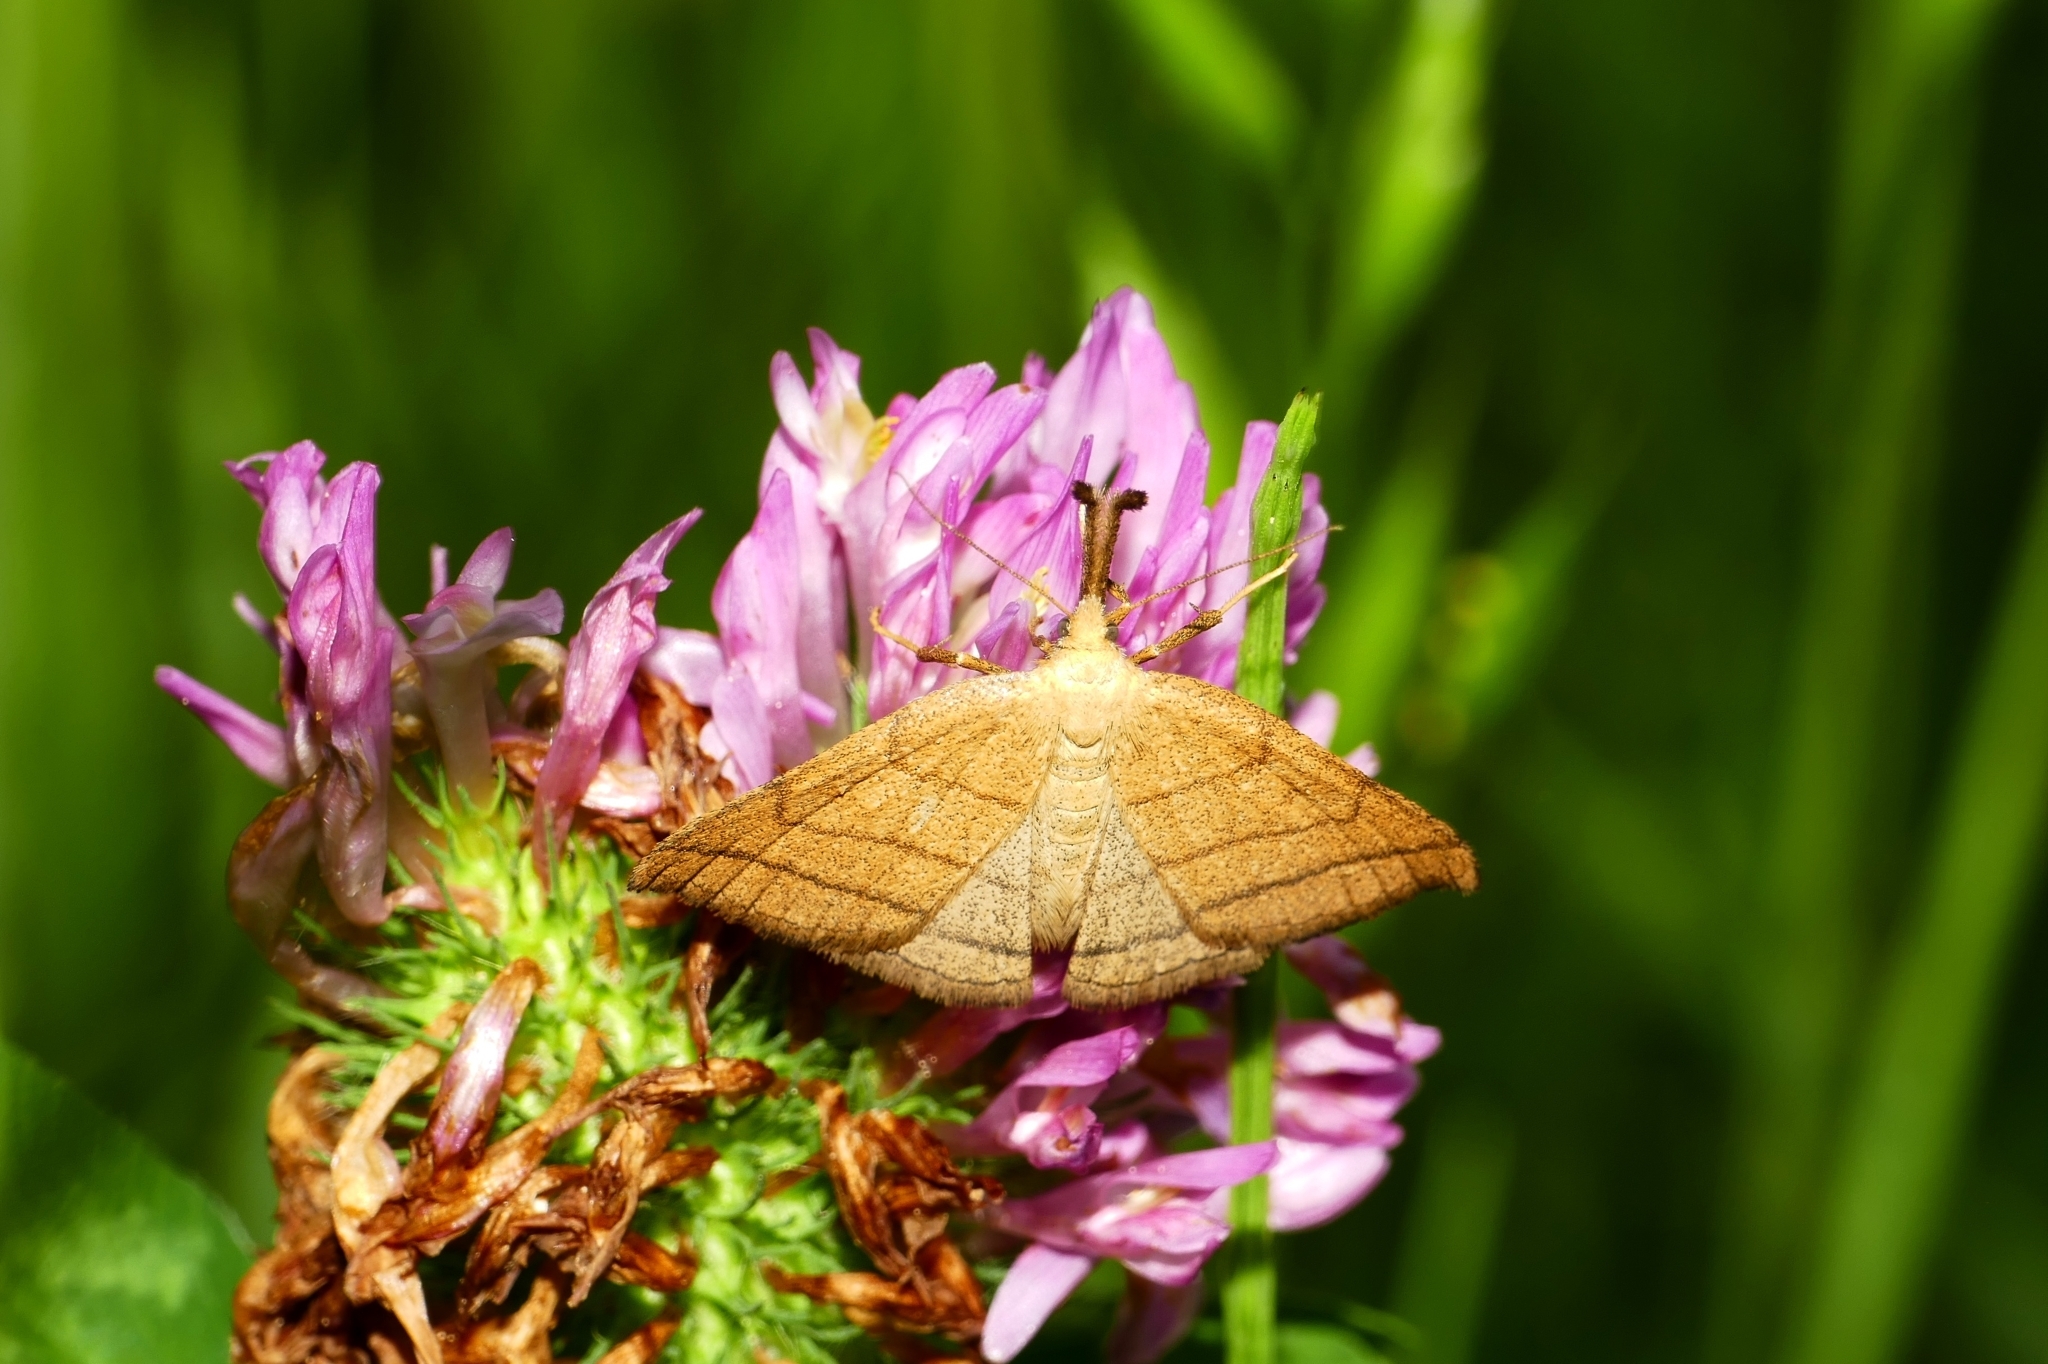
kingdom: Animalia
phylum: Arthropoda
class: Insecta
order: Lepidoptera
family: Erebidae
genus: Polypogon
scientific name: Polypogon tentacularia
